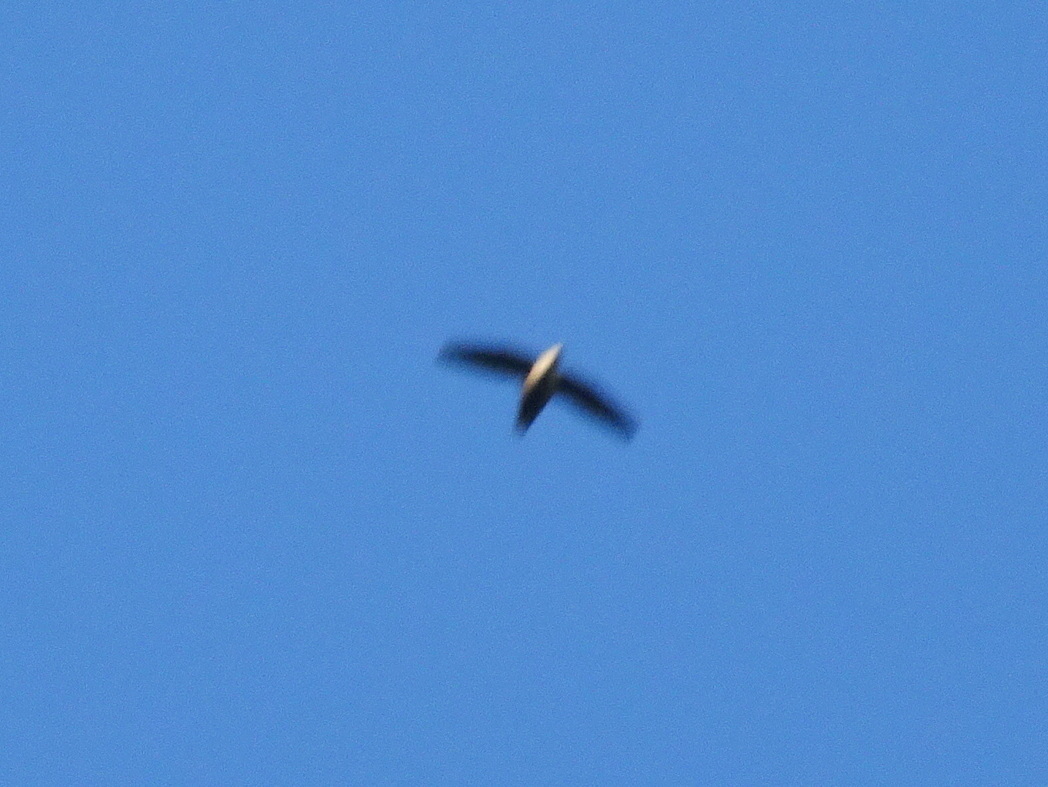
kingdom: Animalia
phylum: Chordata
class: Aves
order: Apodiformes
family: Apodidae
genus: Chaetura
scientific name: Chaetura pelagica
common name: Chimney swift
